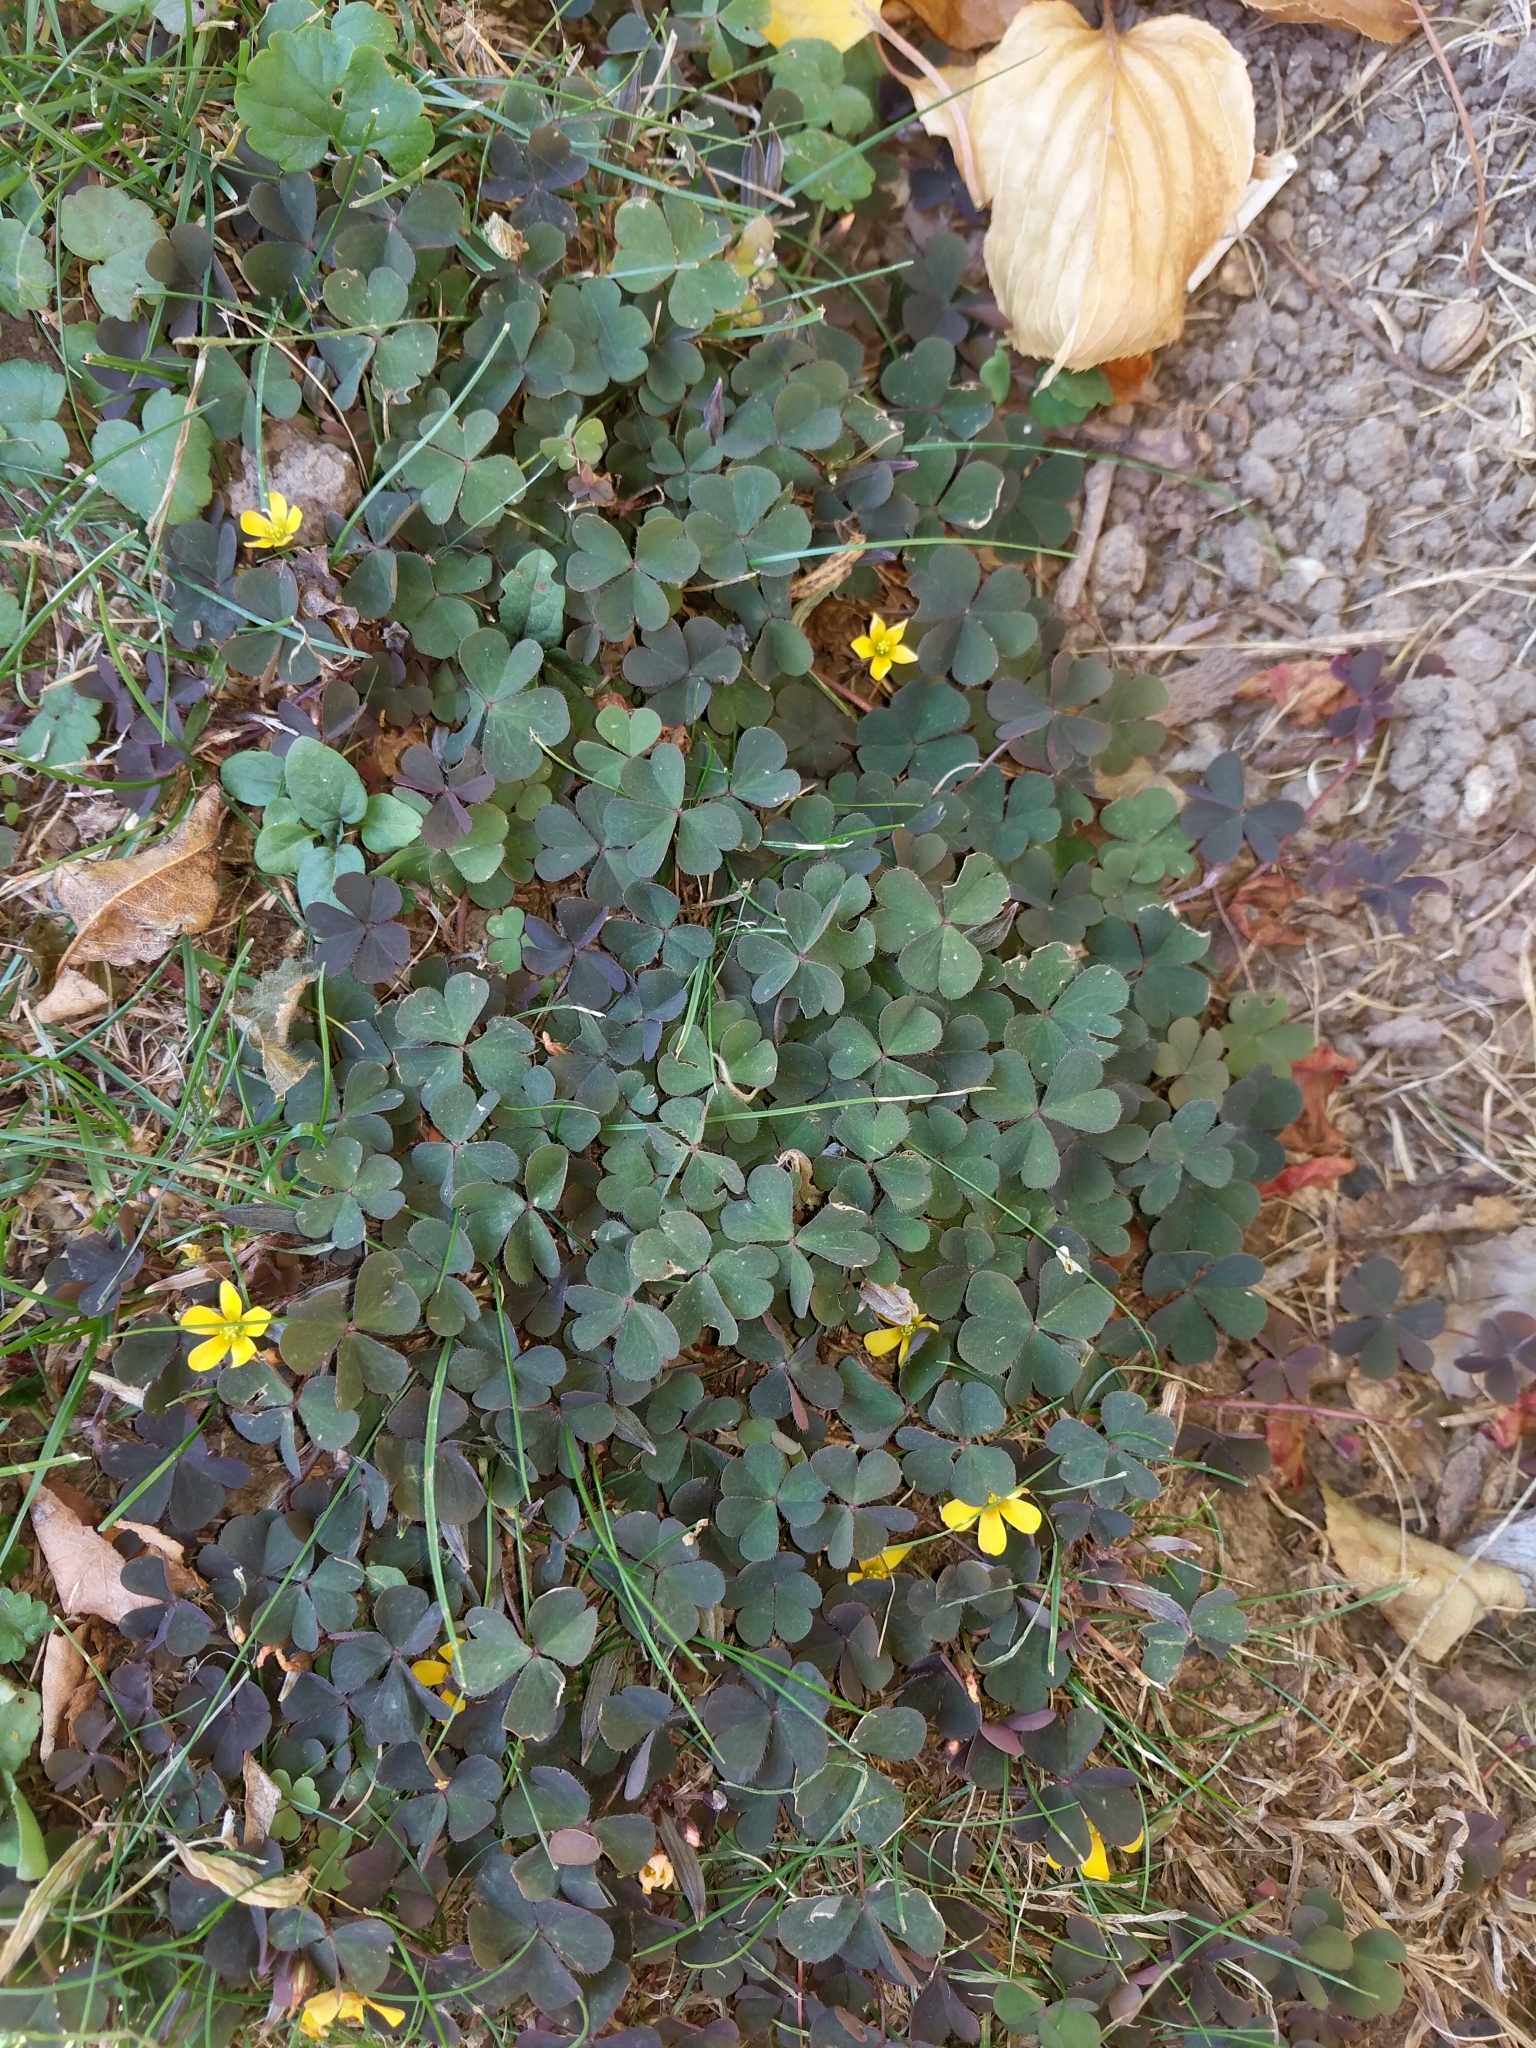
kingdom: Plantae
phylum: Tracheophyta
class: Magnoliopsida
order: Oxalidales
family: Oxalidaceae
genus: Oxalis
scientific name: Oxalis corniculata
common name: Procumbent yellow-sorrel
